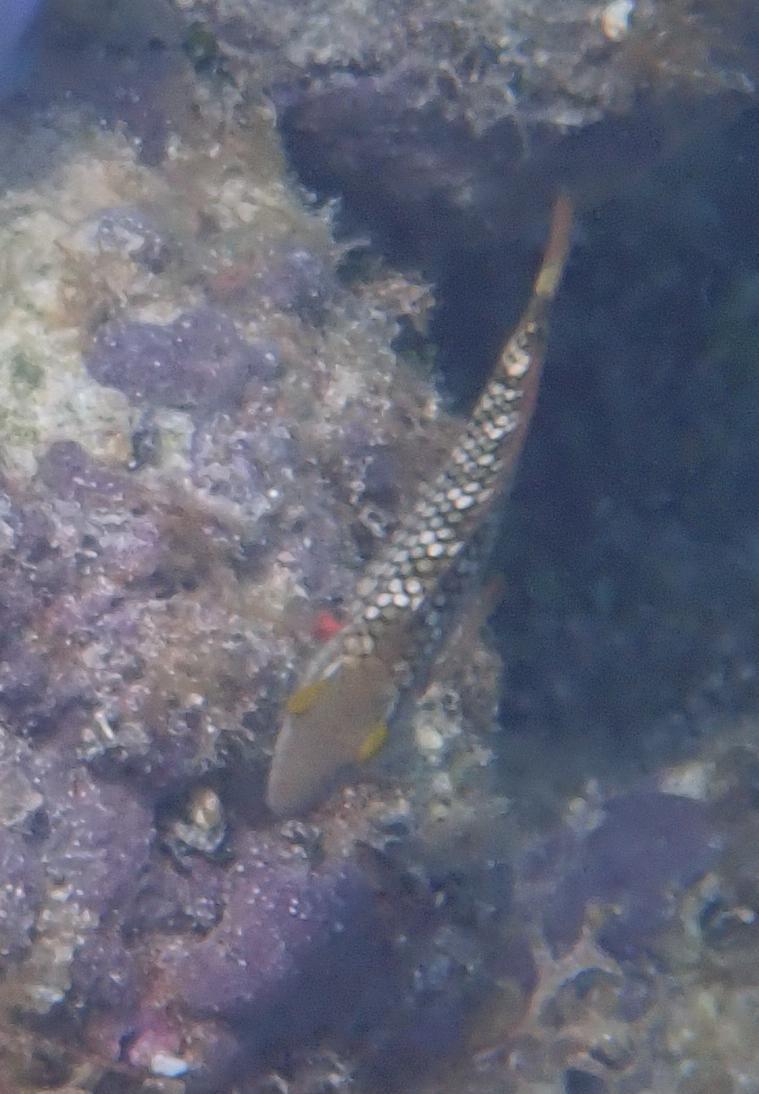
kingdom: Animalia
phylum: Chordata
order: Perciformes
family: Scaridae
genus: Sparisoma
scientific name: Sparisoma viride
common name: Stoplight parrotfish
